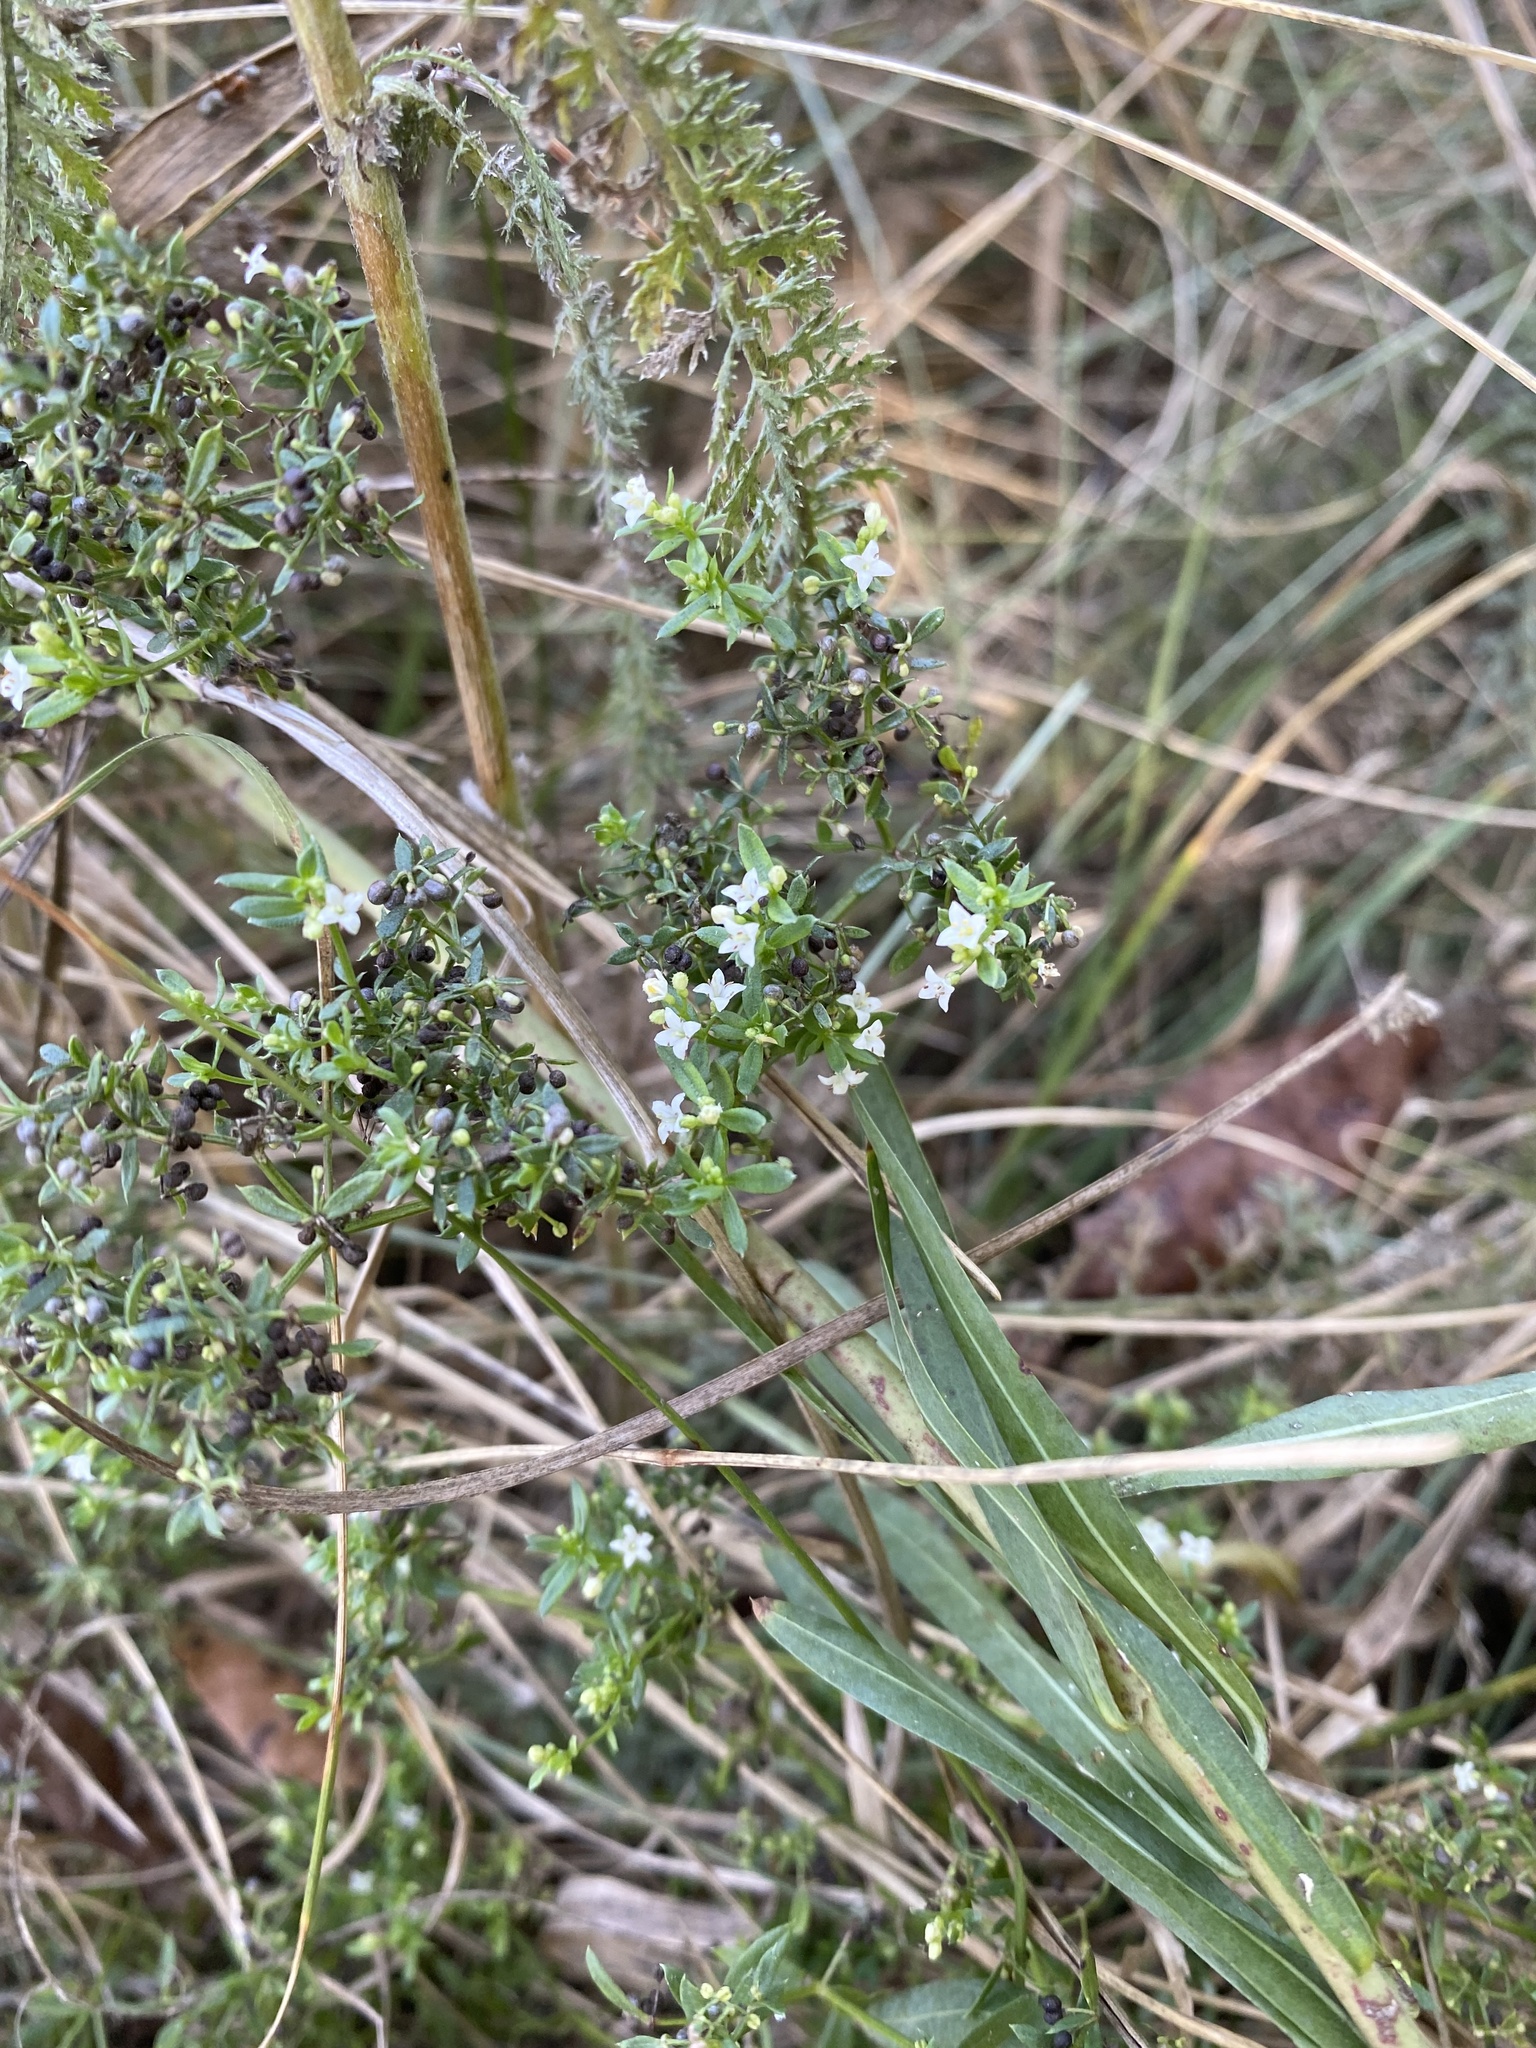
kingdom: Plantae
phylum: Tracheophyta
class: Magnoliopsida
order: Gentianales
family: Rubiaceae
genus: Galium
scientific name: Galium humifusum
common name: Spreading bedstraw
